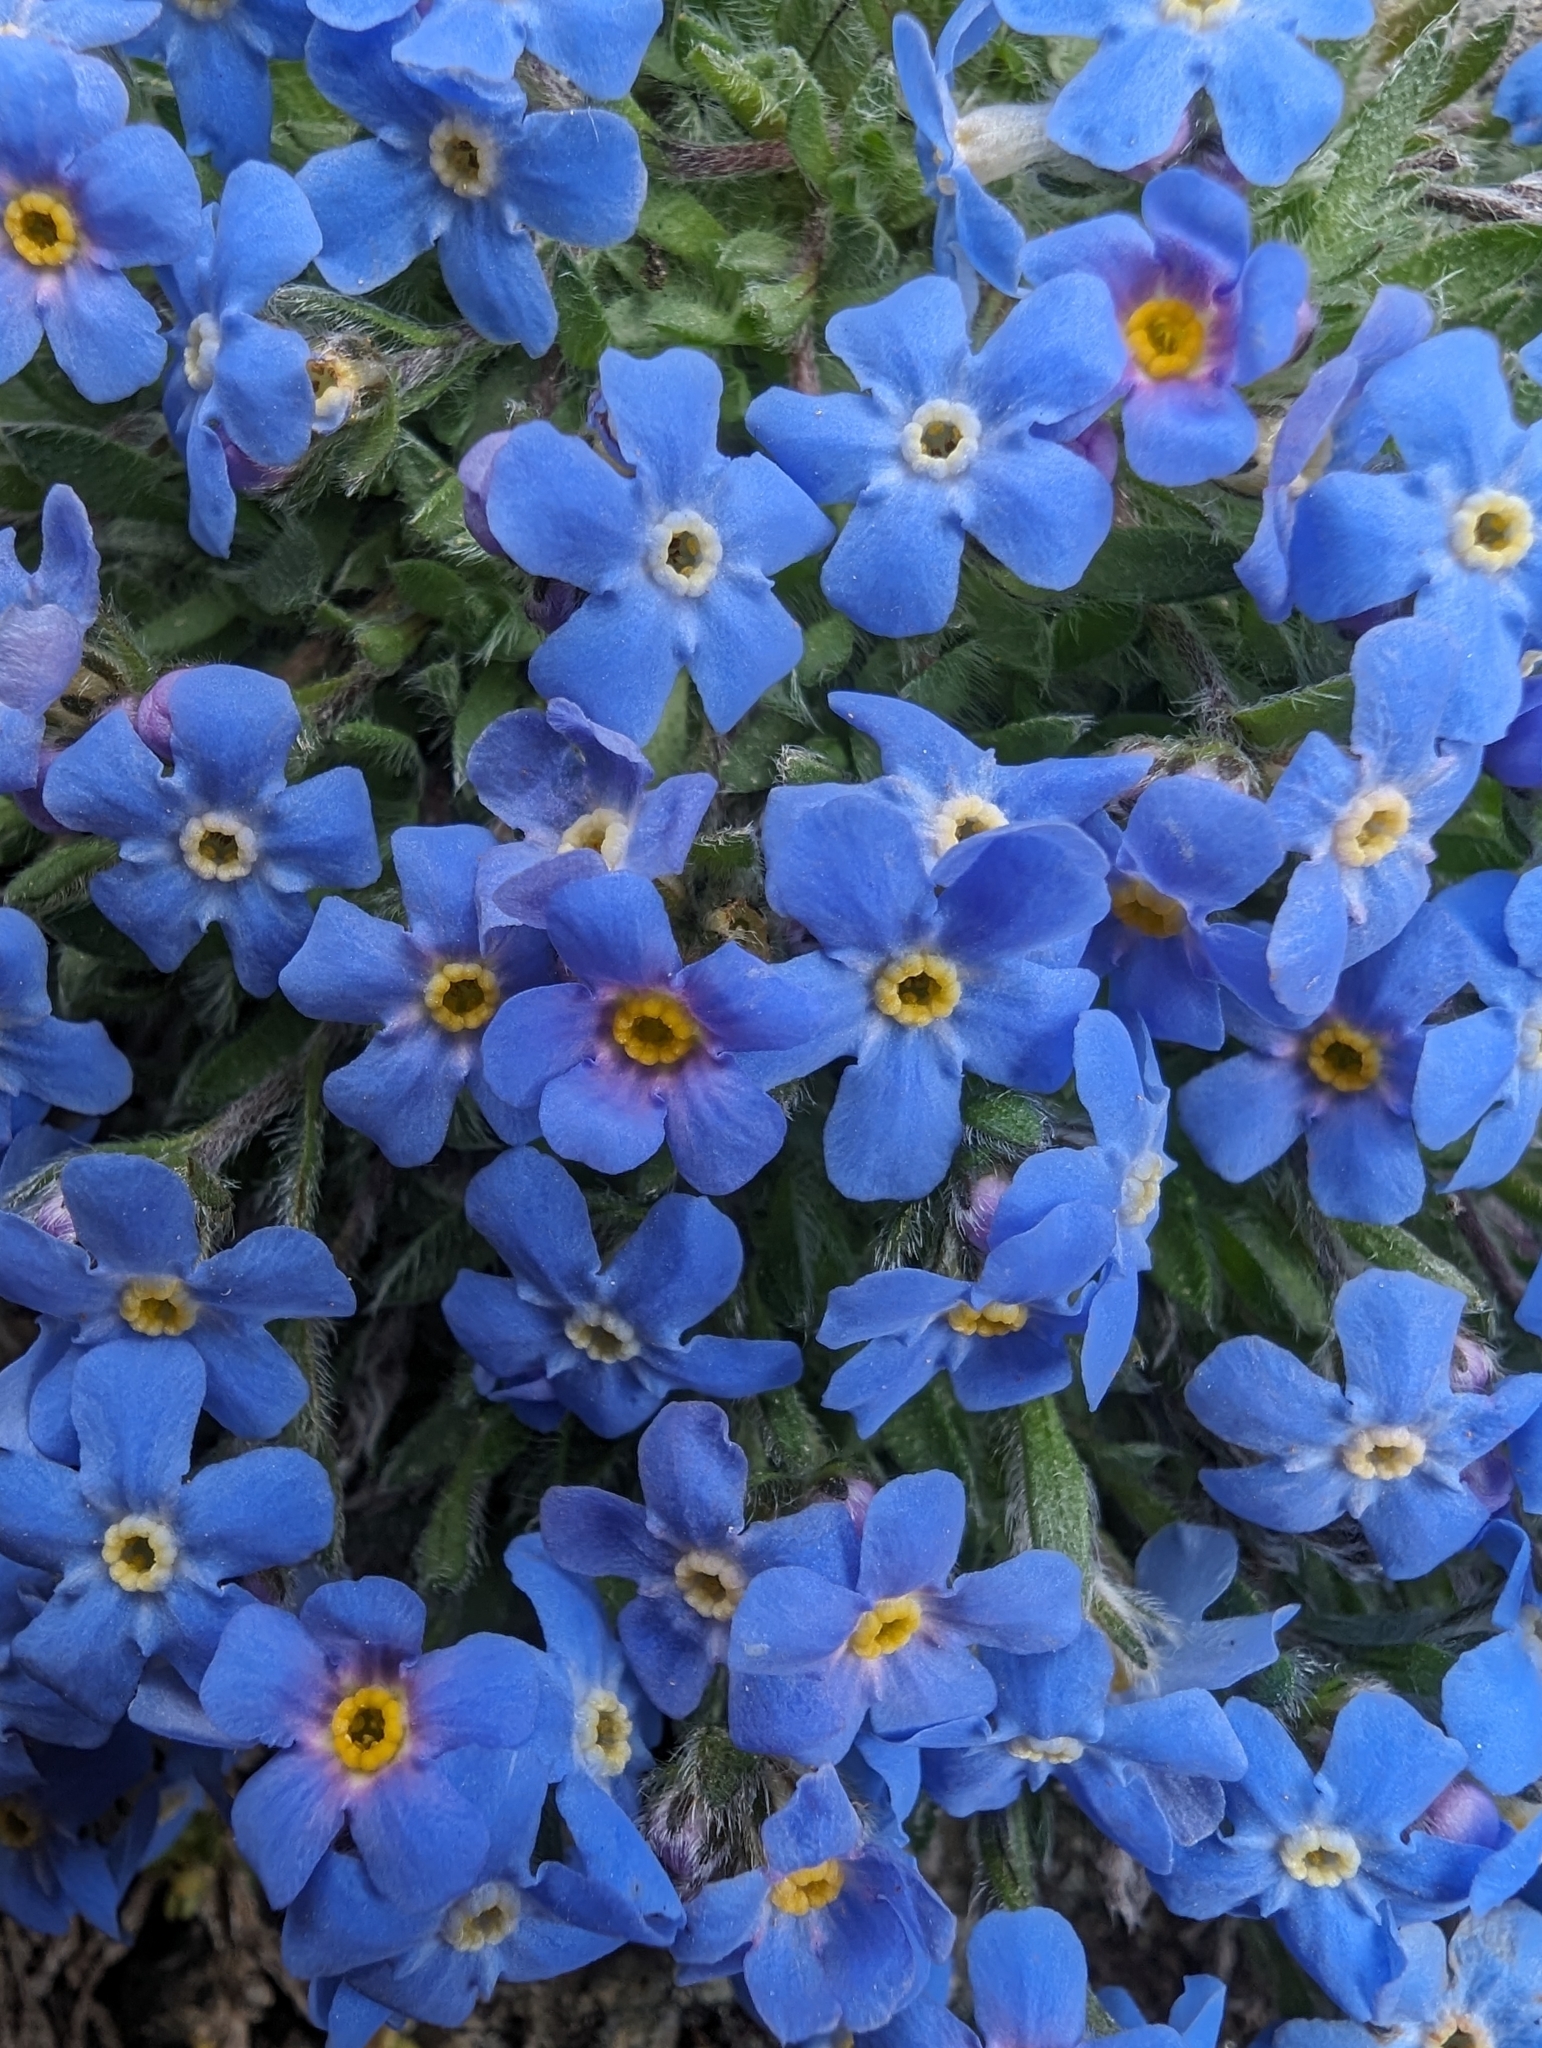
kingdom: Plantae
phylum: Tracheophyta
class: Magnoliopsida
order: Boraginales
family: Boraginaceae
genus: Eritrichium
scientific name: Eritrichium nanum
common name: King-of-the-alps
